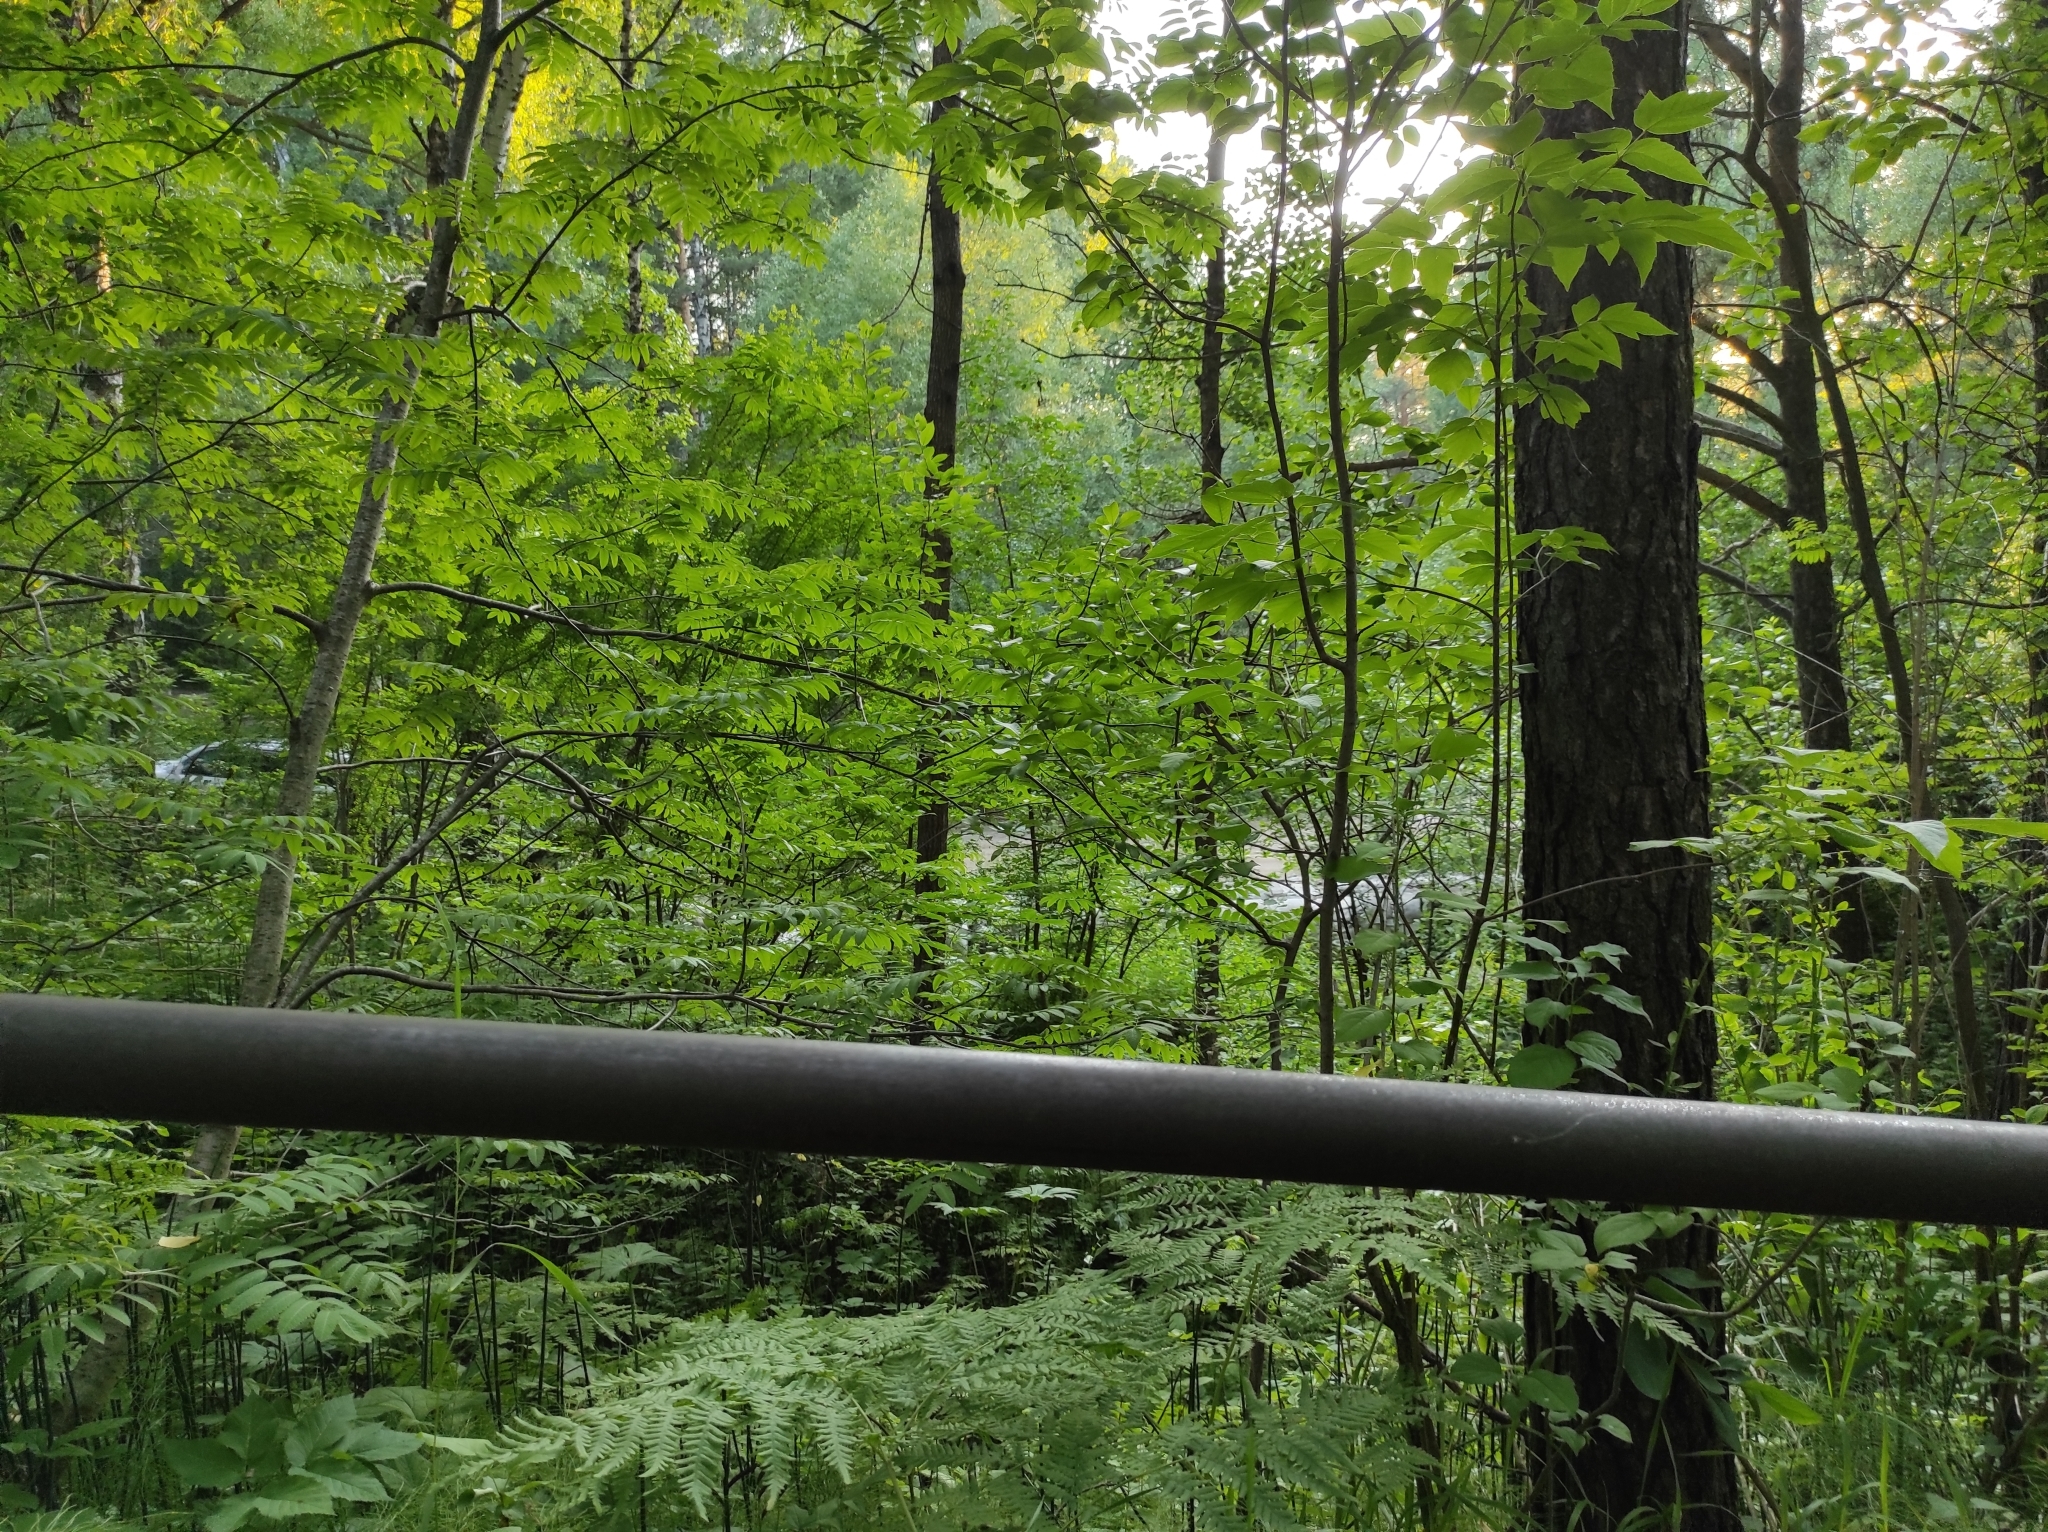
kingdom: Plantae
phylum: Tracheophyta
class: Pinopsida
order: Pinales
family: Pinaceae
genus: Pinus
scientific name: Pinus sylvestris
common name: Scots pine
